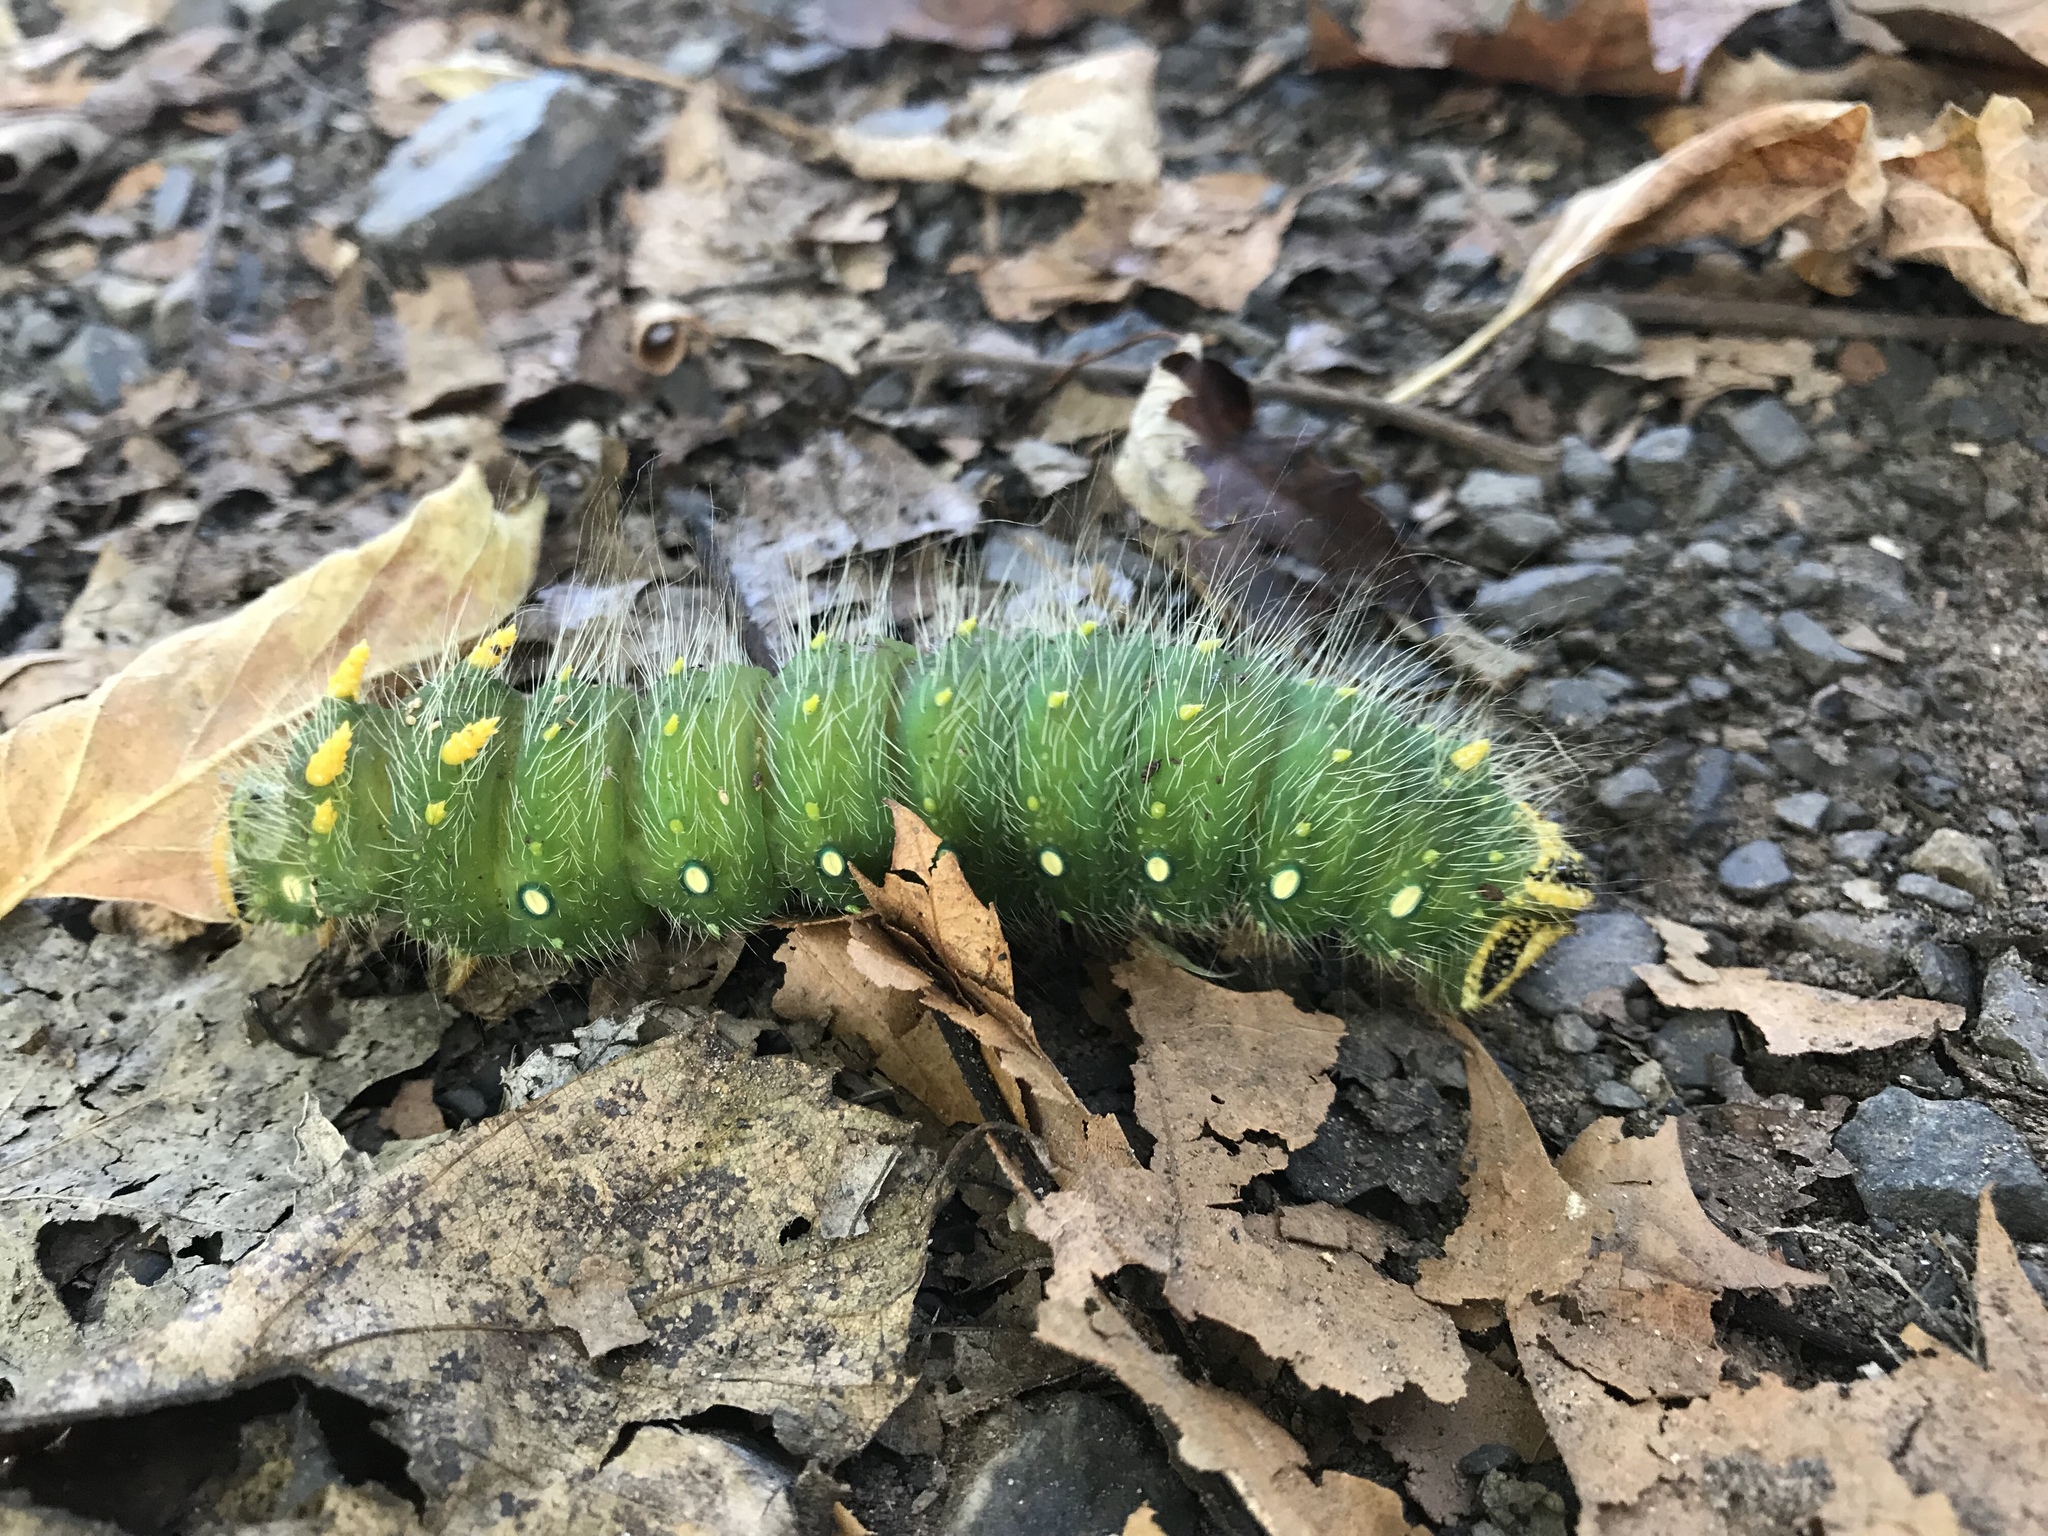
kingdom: Animalia
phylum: Arthropoda
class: Insecta
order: Lepidoptera
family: Saturniidae
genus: Eacles
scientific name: Eacles imperialis
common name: Imperial moth
